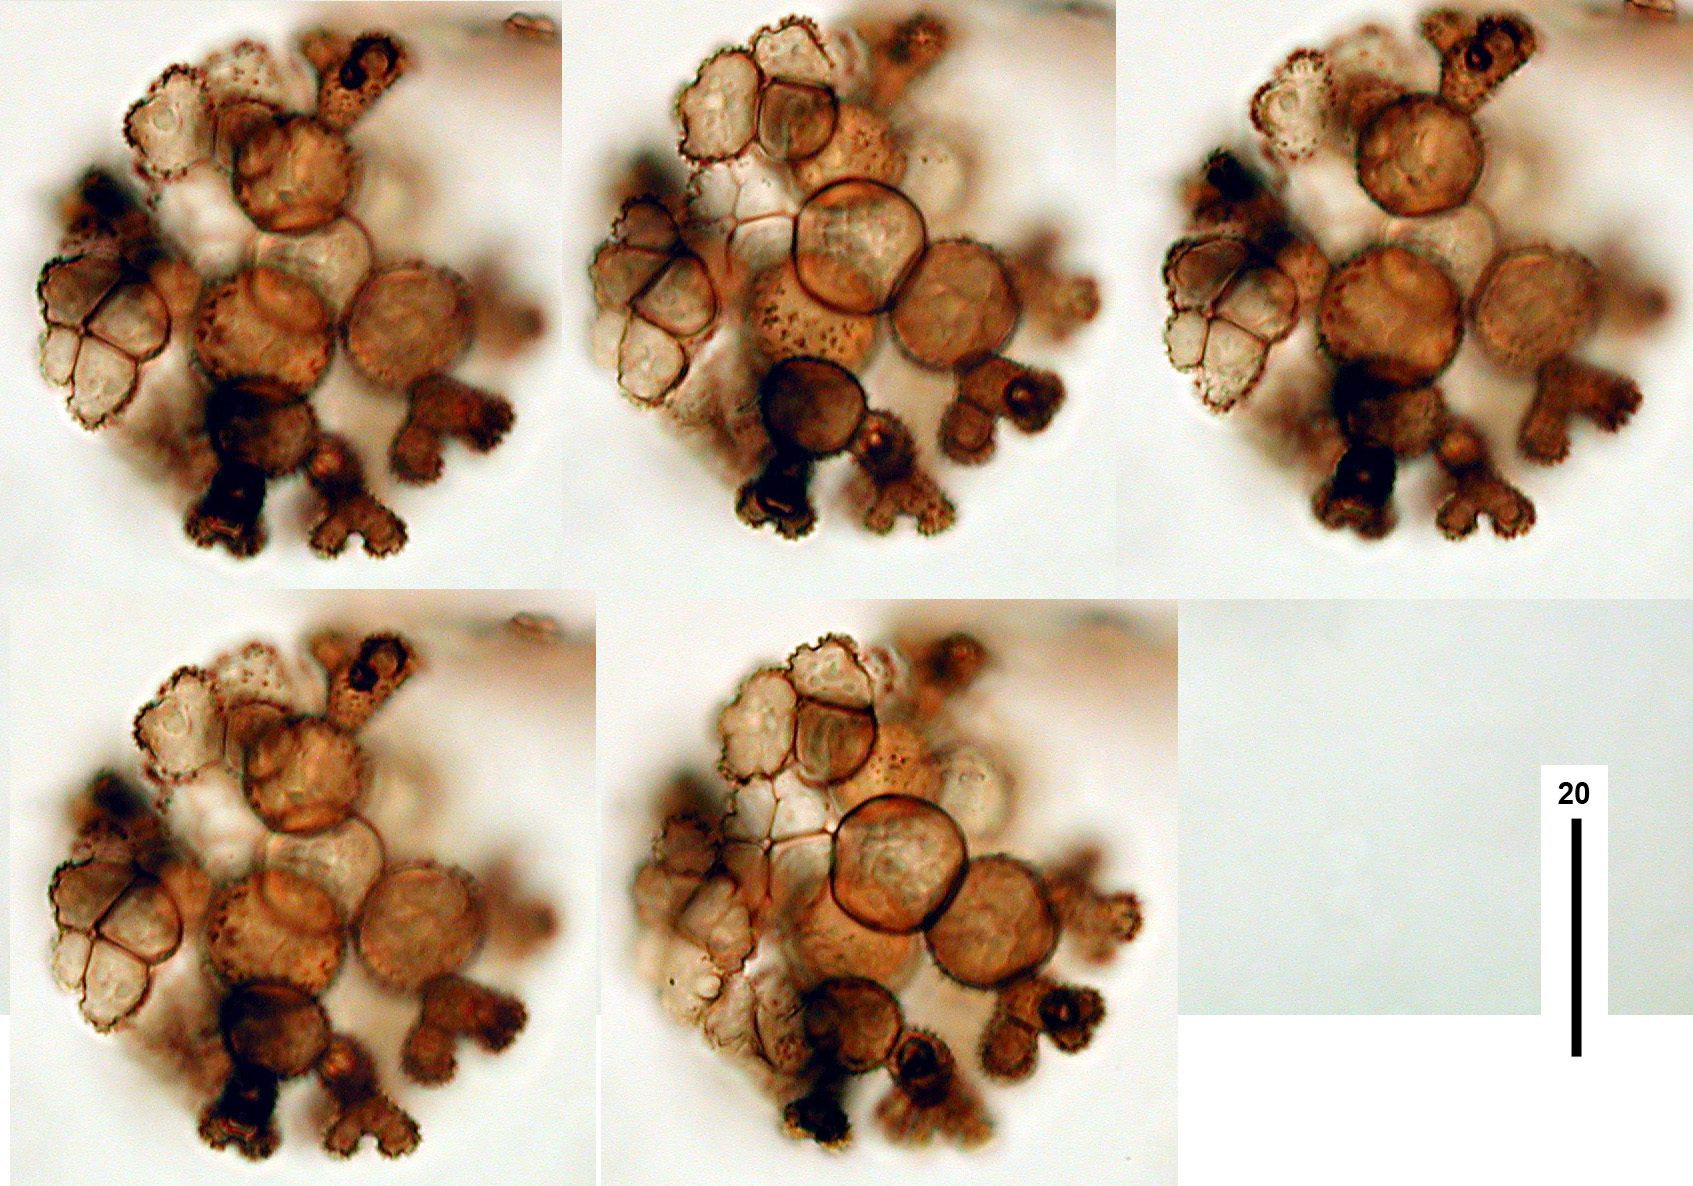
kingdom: Fungi
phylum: Ascomycota
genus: Phaeocandelabrum
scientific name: Phaeocandelabrum joseiturriagae
